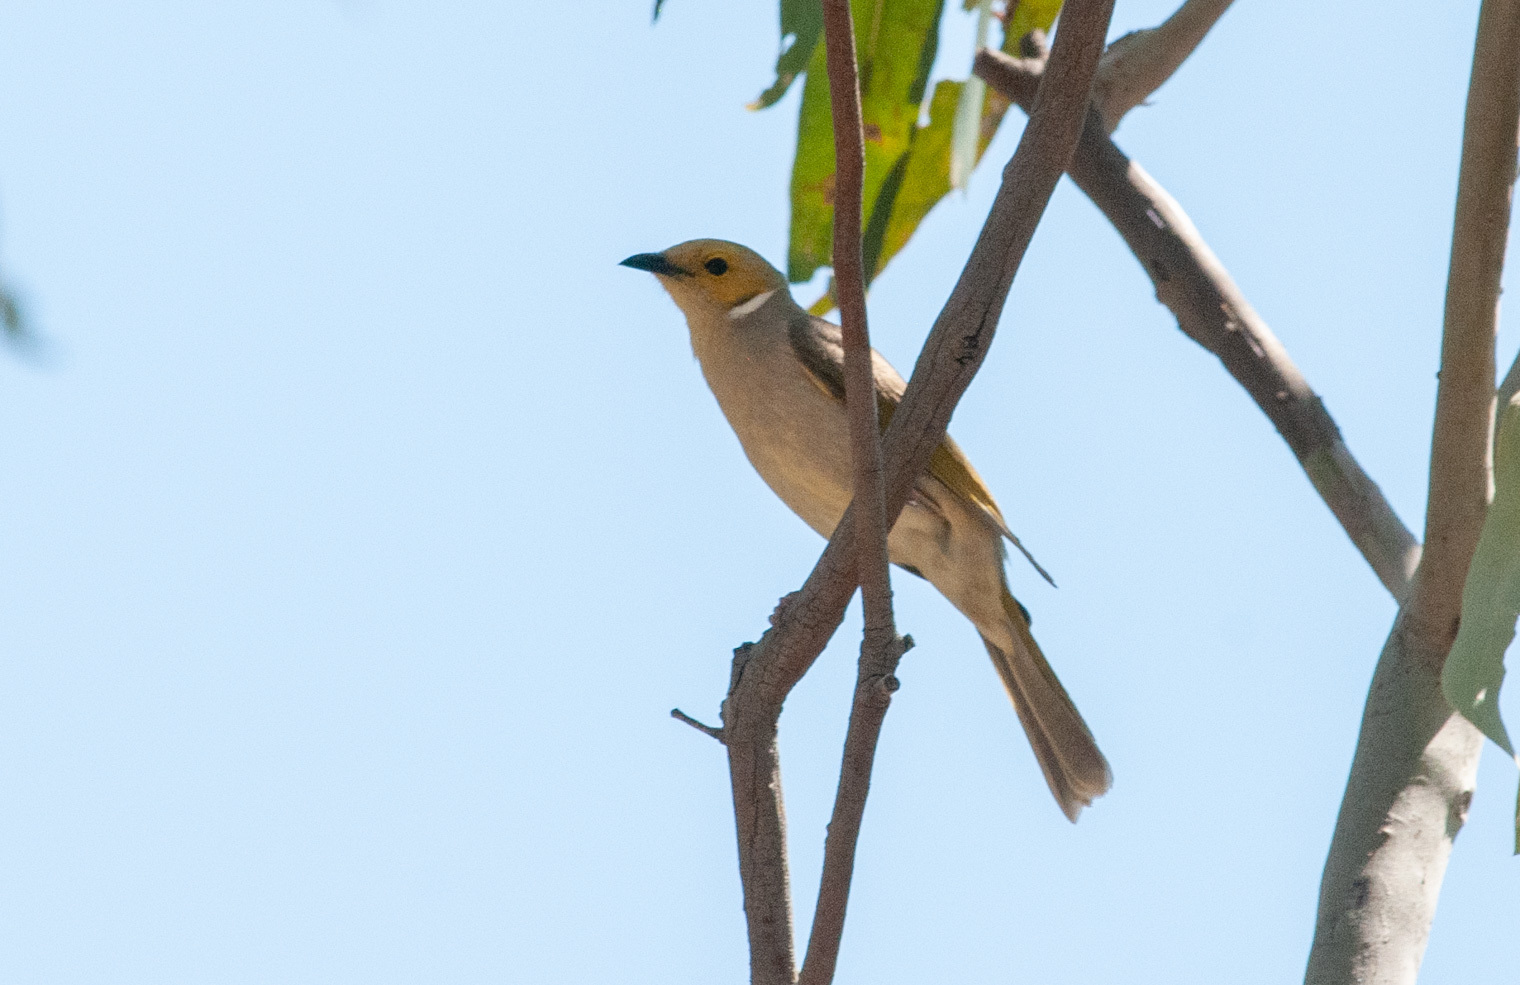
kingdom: Animalia
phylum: Chordata
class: Aves
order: Passeriformes
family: Meliphagidae
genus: Ptilotula
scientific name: Ptilotula penicillata
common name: White-plumed honeyeater
